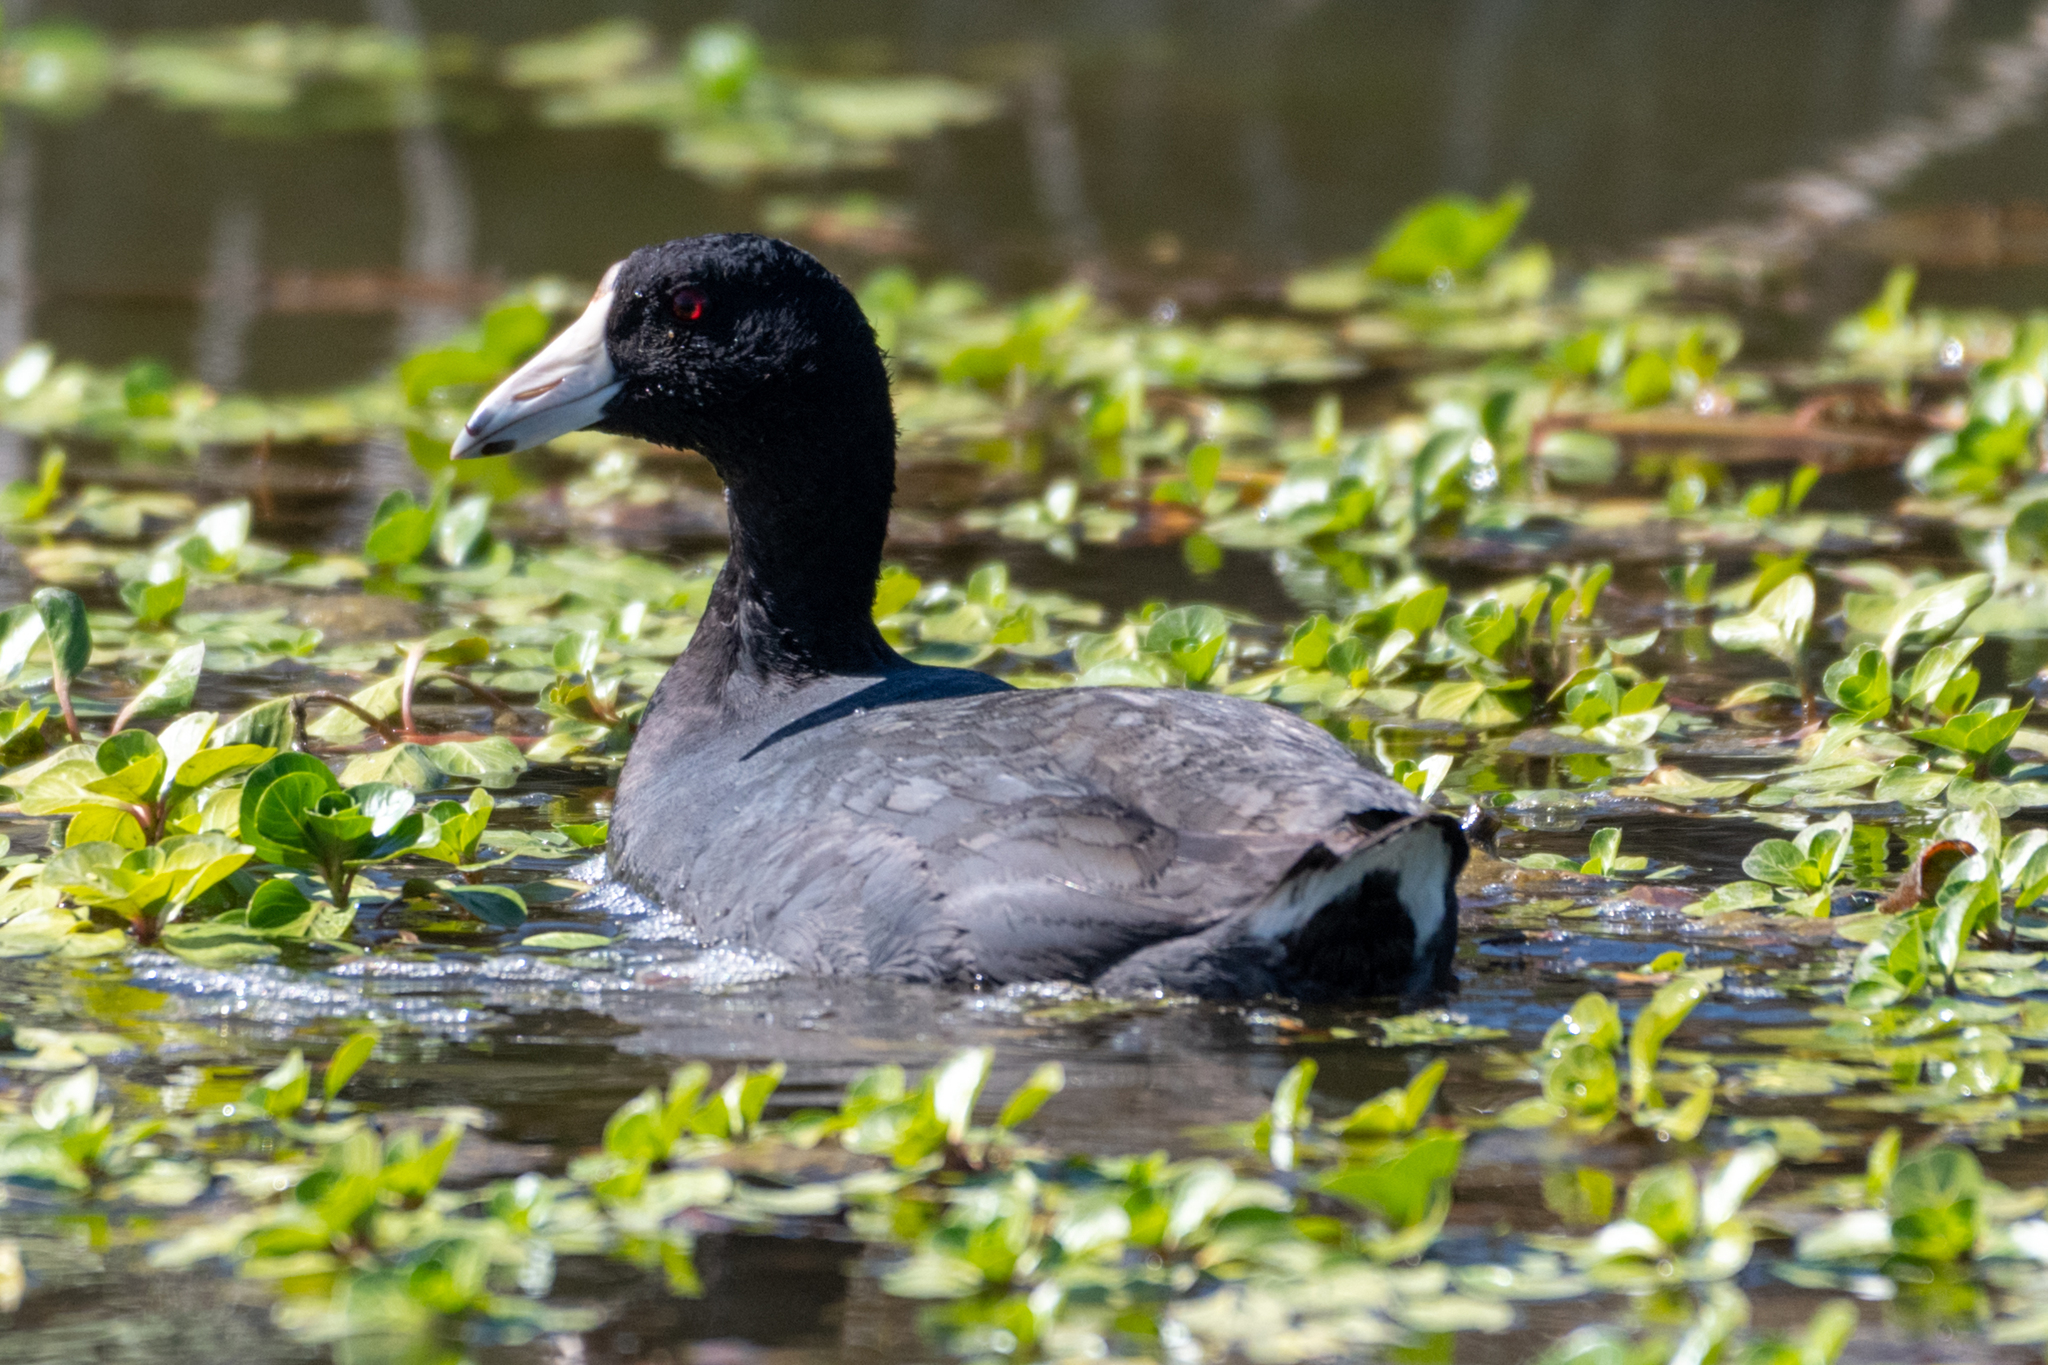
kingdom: Animalia
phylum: Chordata
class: Aves
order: Gruiformes
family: Rallidae
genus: Fulica
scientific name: Fulica americana
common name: American coot
